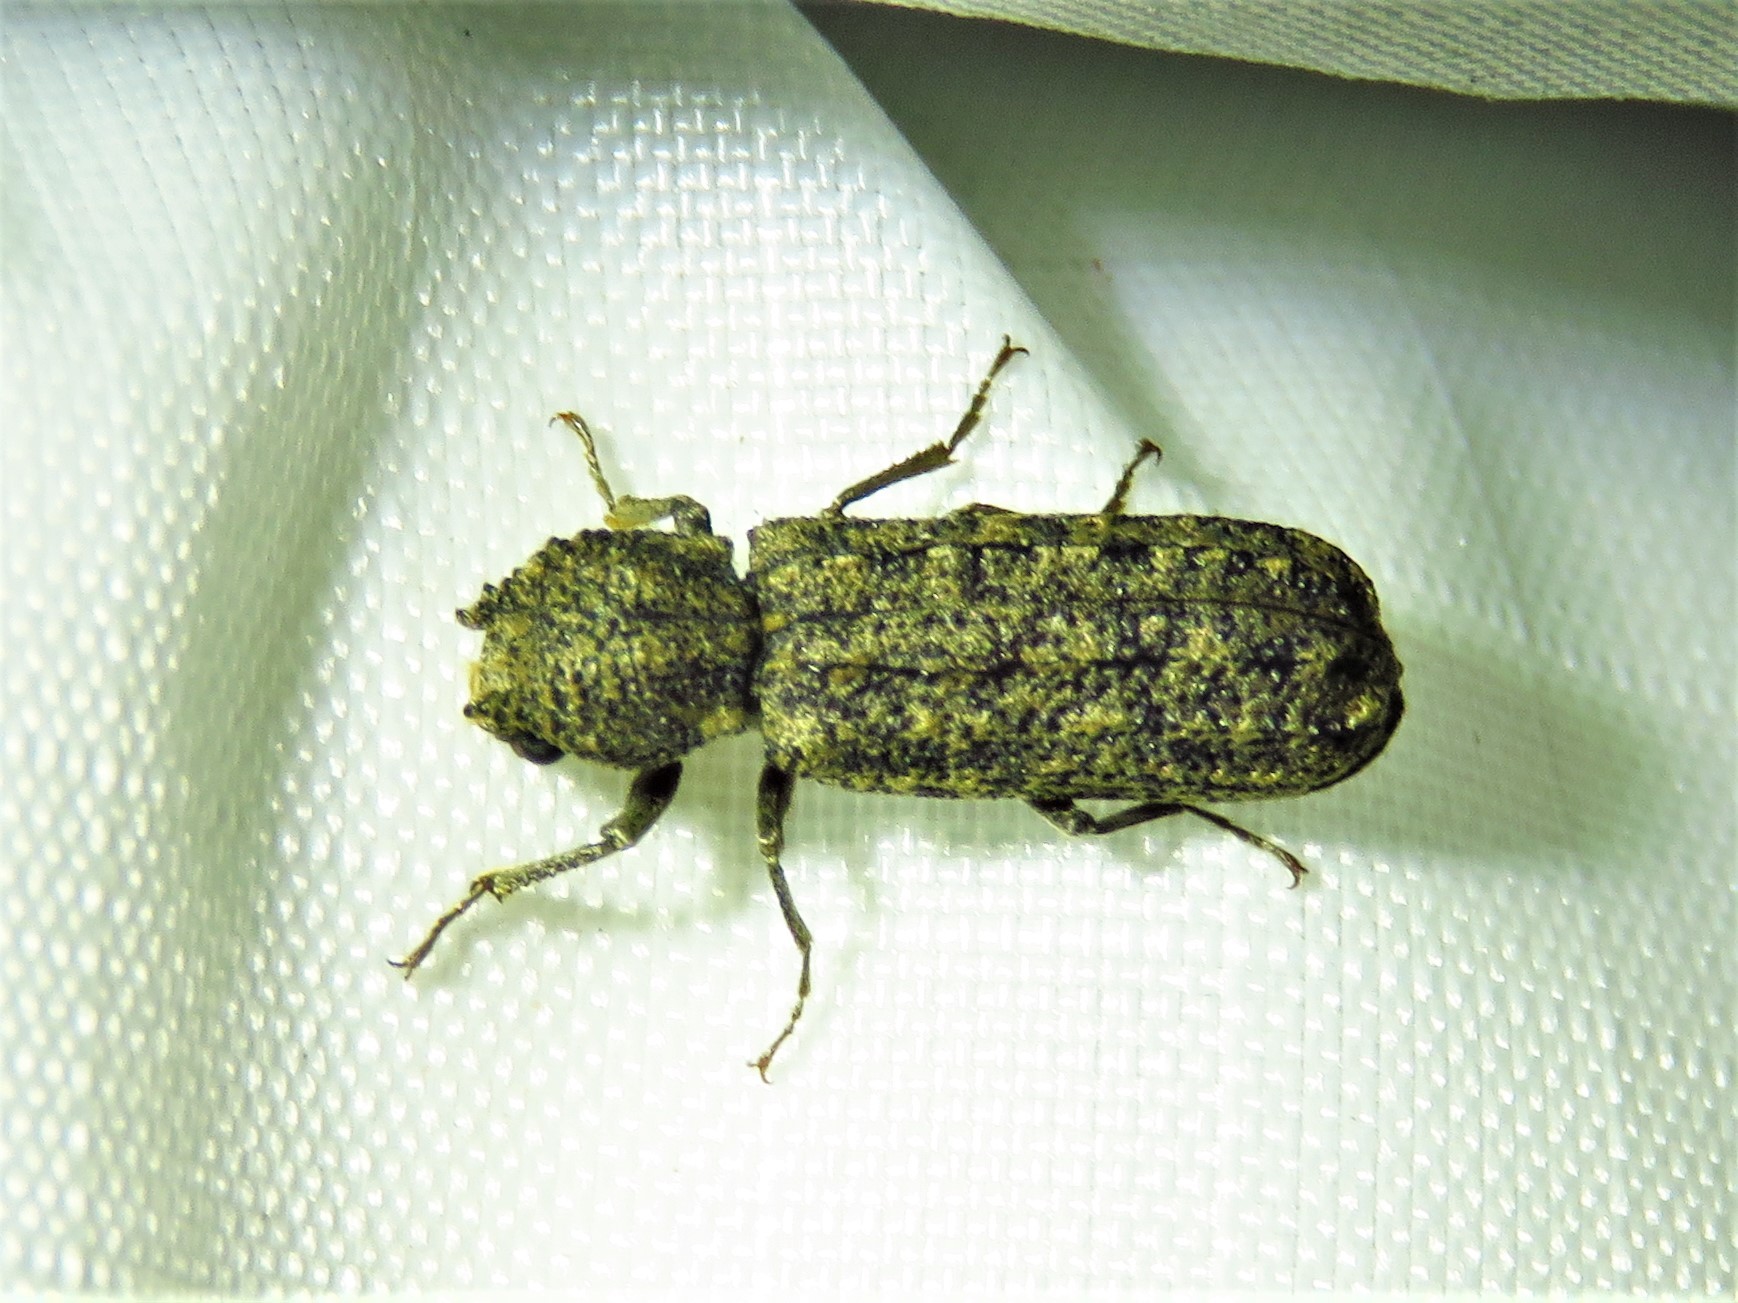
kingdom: Animalia
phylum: Arthropoda
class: Insecta
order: Coleoptera
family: Bostrichidae
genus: Lichenophanes
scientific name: Lichenophanes bicornis
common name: Two-horned powder-post beetle
